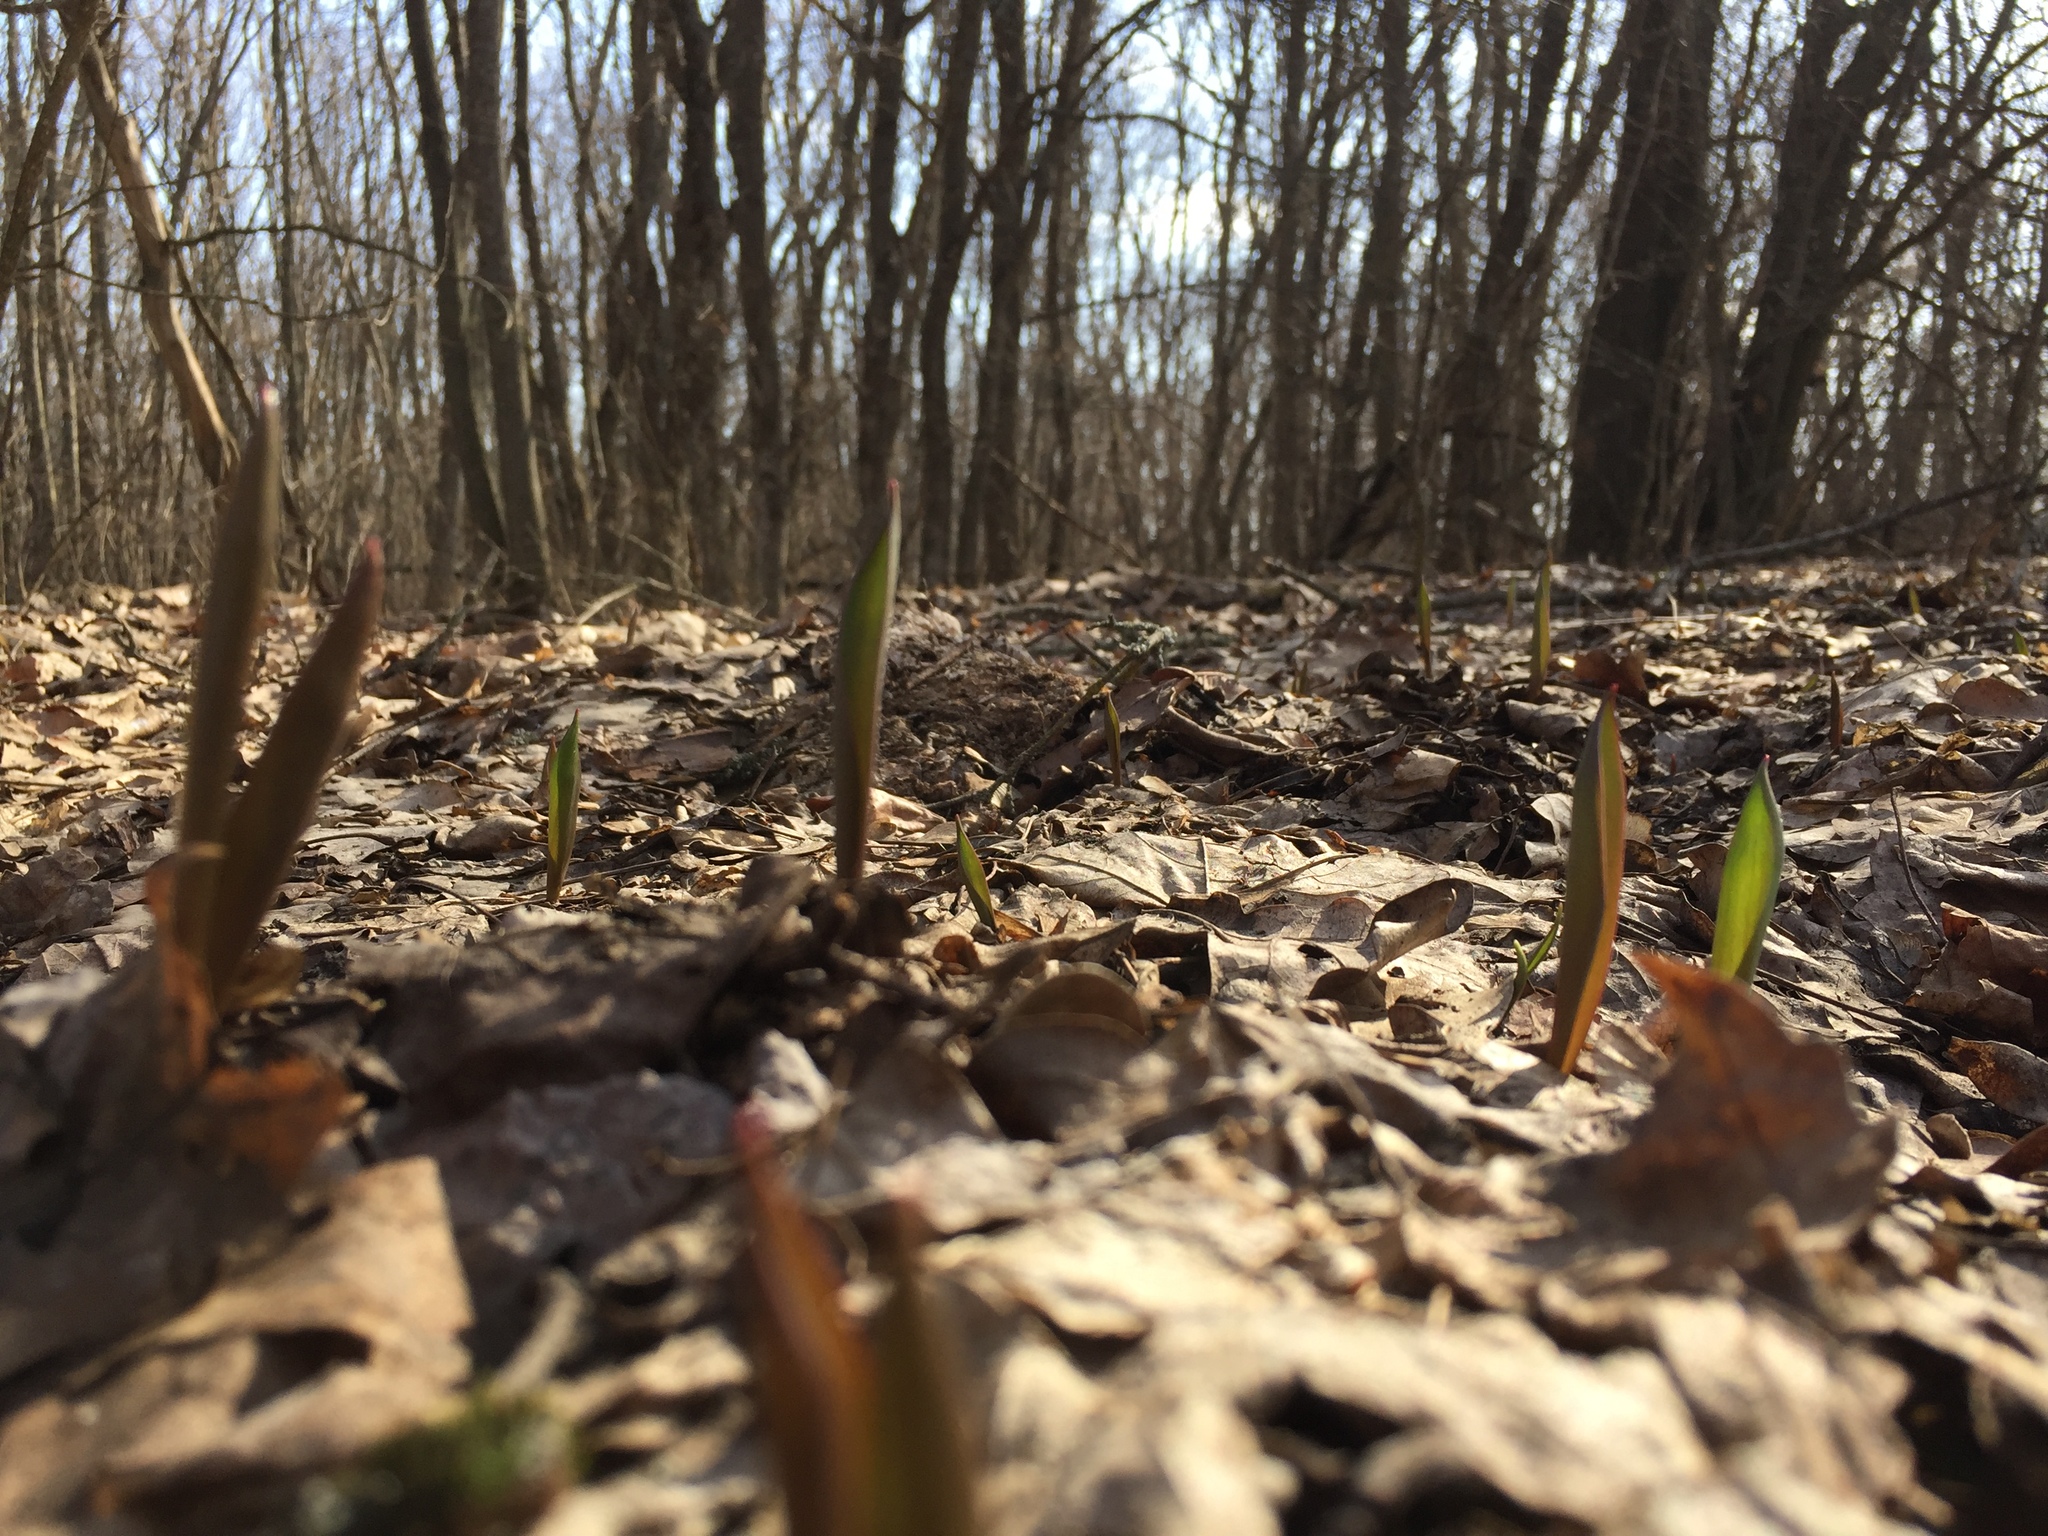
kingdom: Plantae
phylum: Tracheophyta
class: Liliopsida
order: Liliales
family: Liliaceae
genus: Tulipa
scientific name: Tulipa sylvestris
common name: Wild tulip
